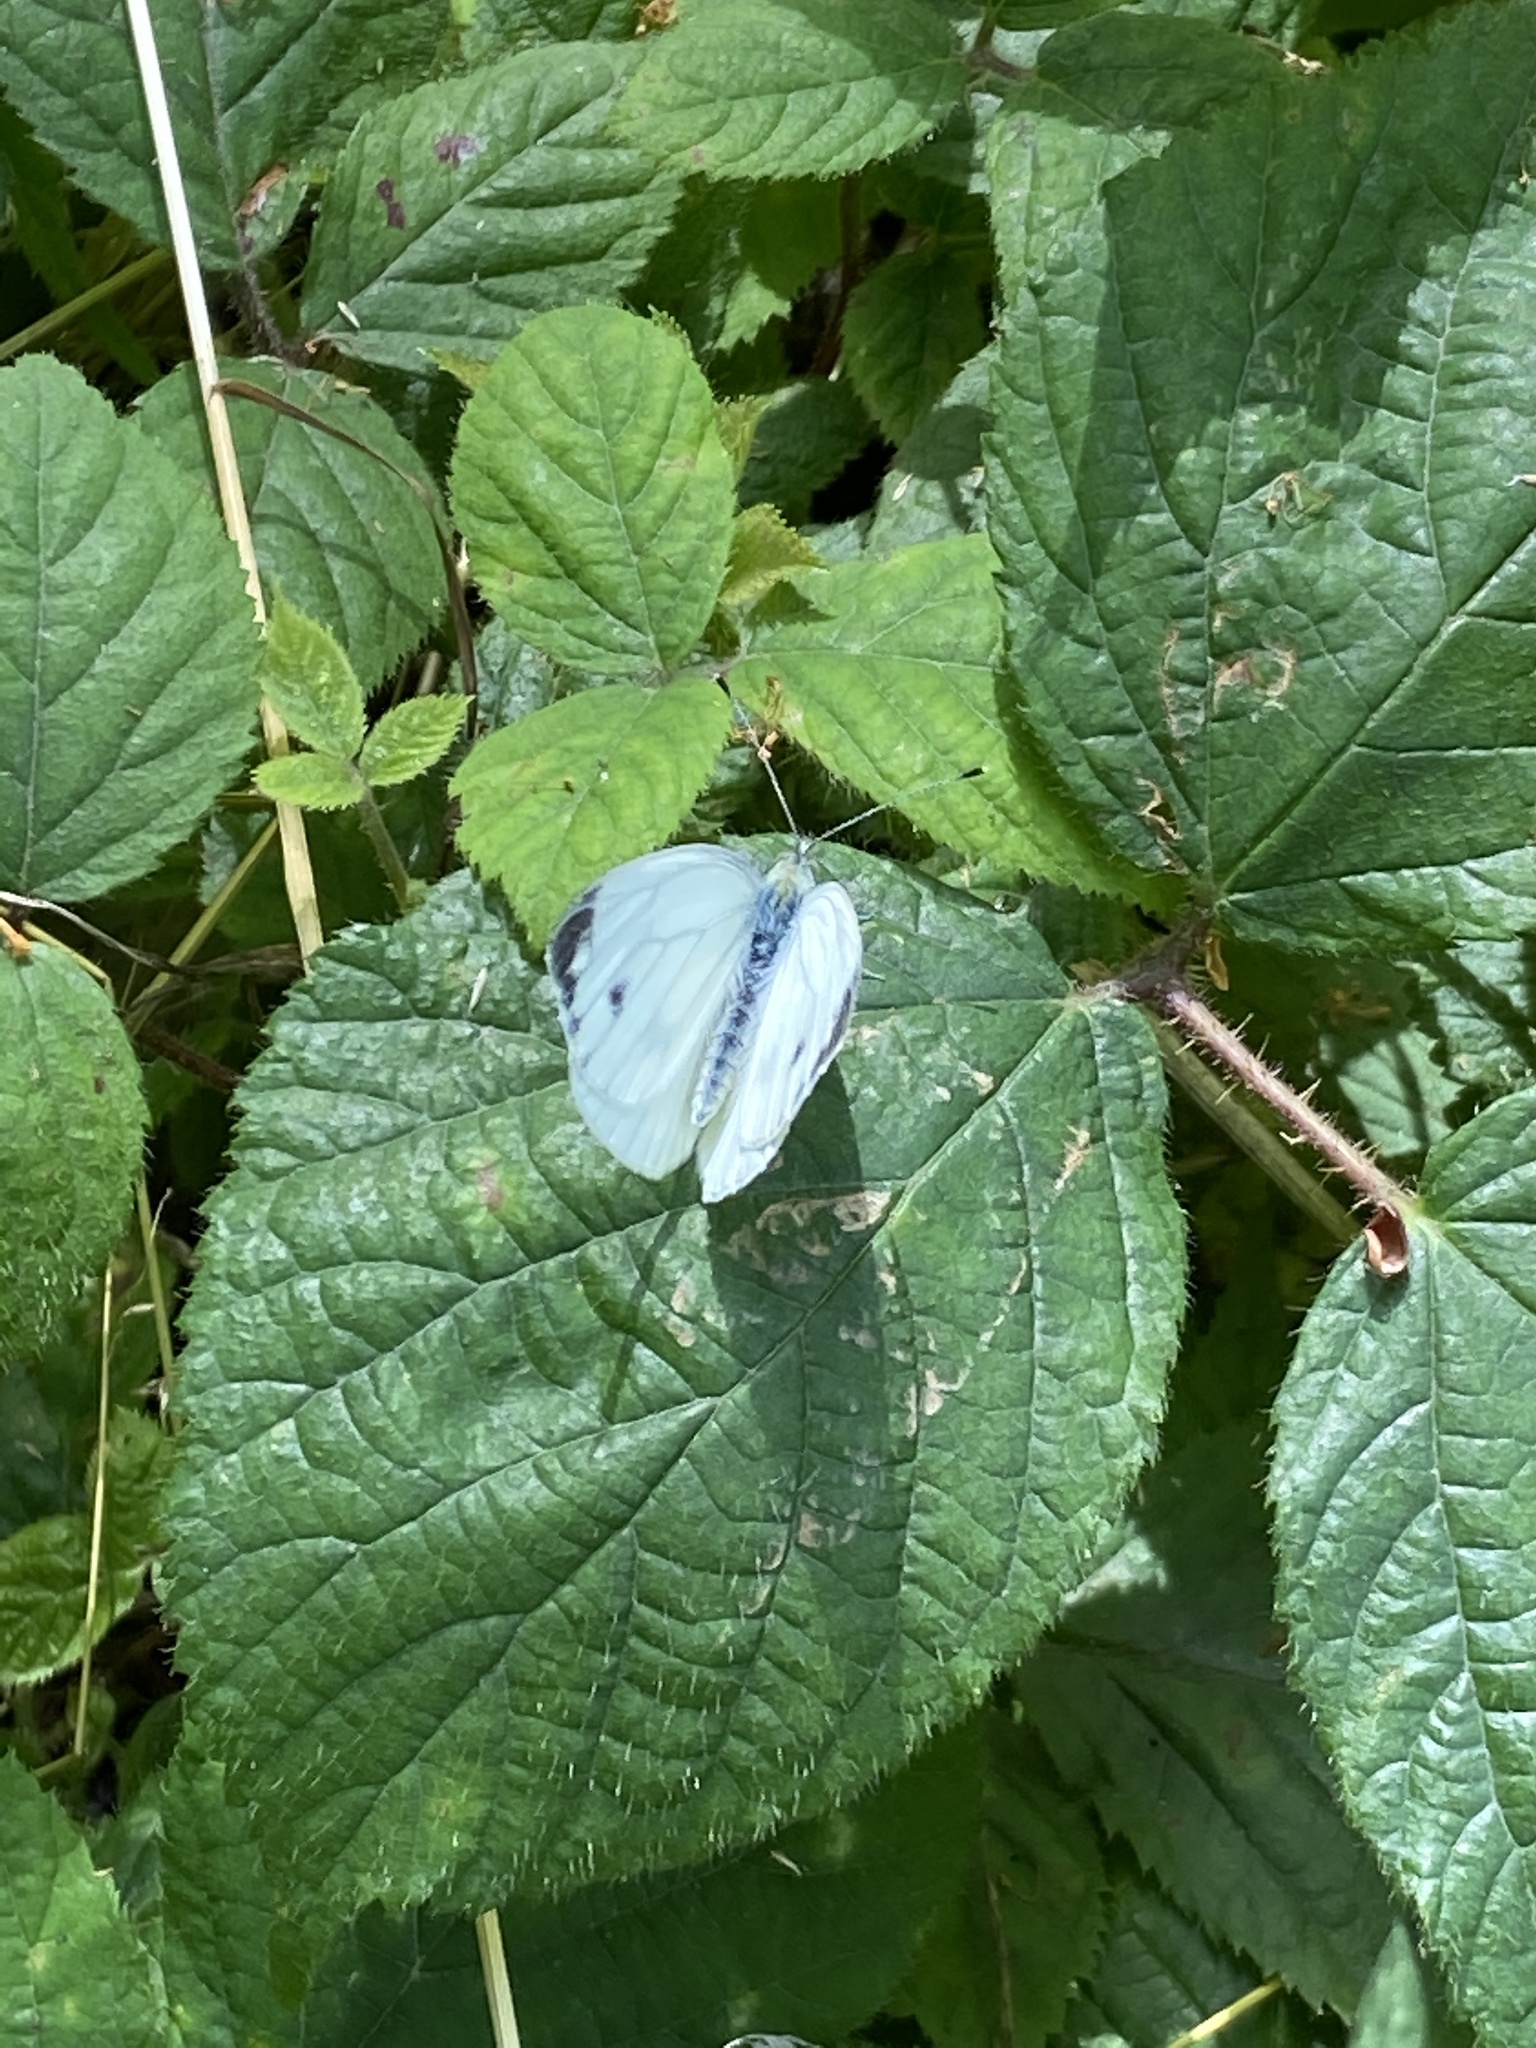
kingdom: Animalia
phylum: Arthropoda
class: Insecta
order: Lepidoptera
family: Pieridae
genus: Pieris
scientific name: Pieris napi
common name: Green-veined white
